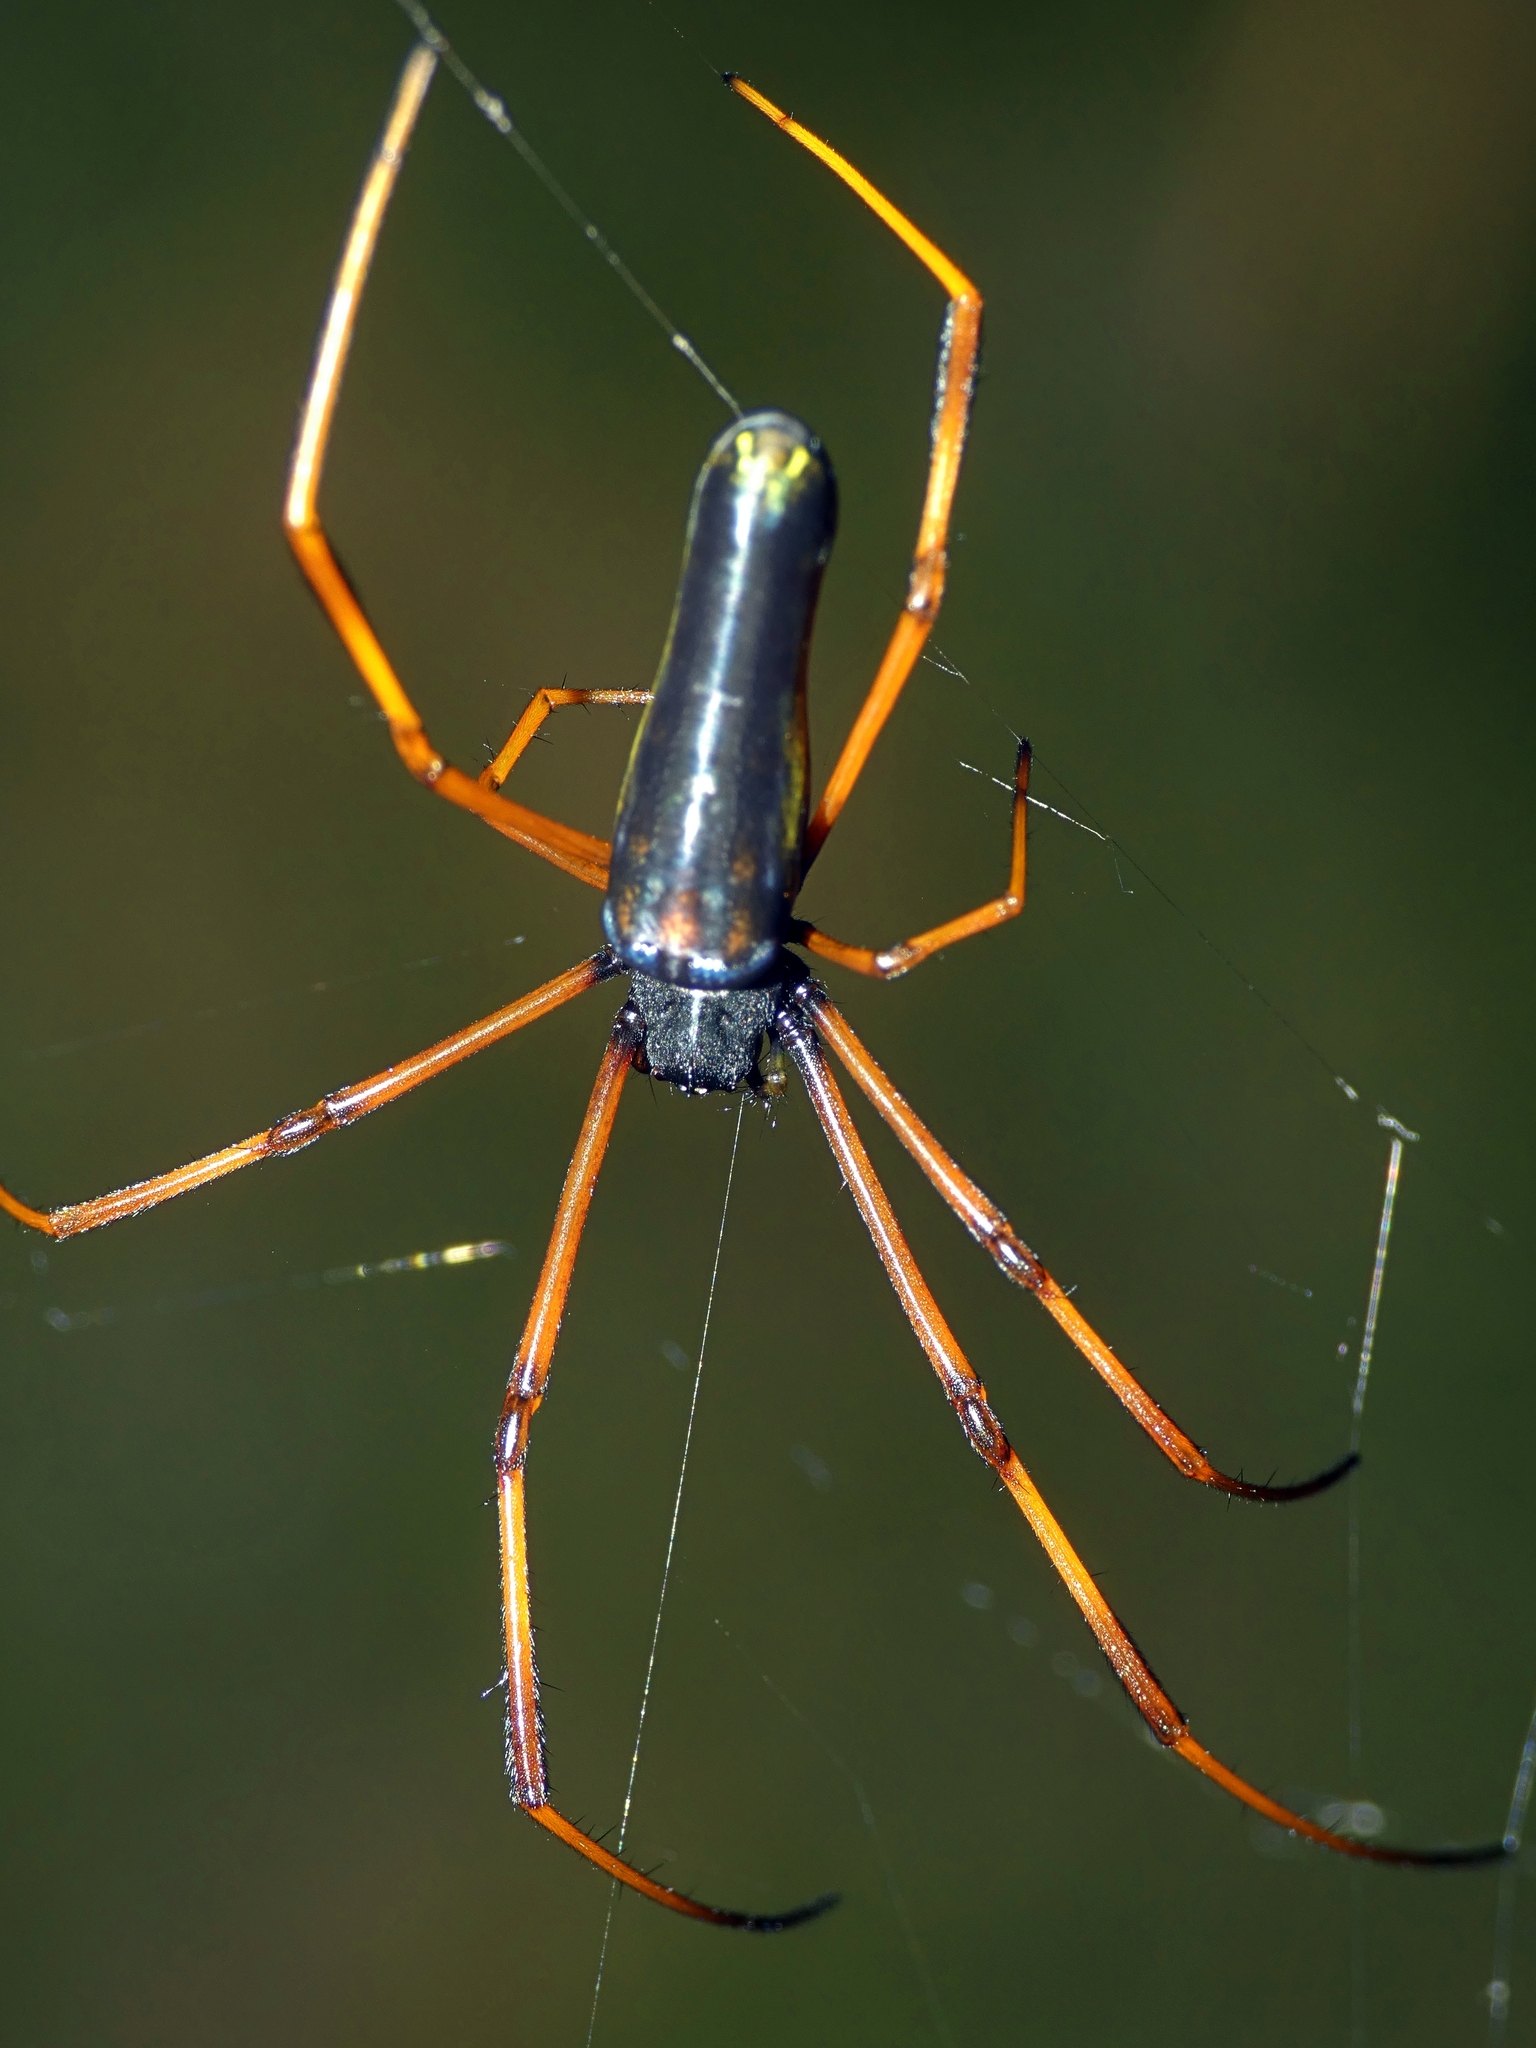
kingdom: Animalia
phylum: Arthropoda
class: Arachnida
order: Araneae
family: Araneidae
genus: Nephila
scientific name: Nephila pilipes
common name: Giant golden orb weaver
